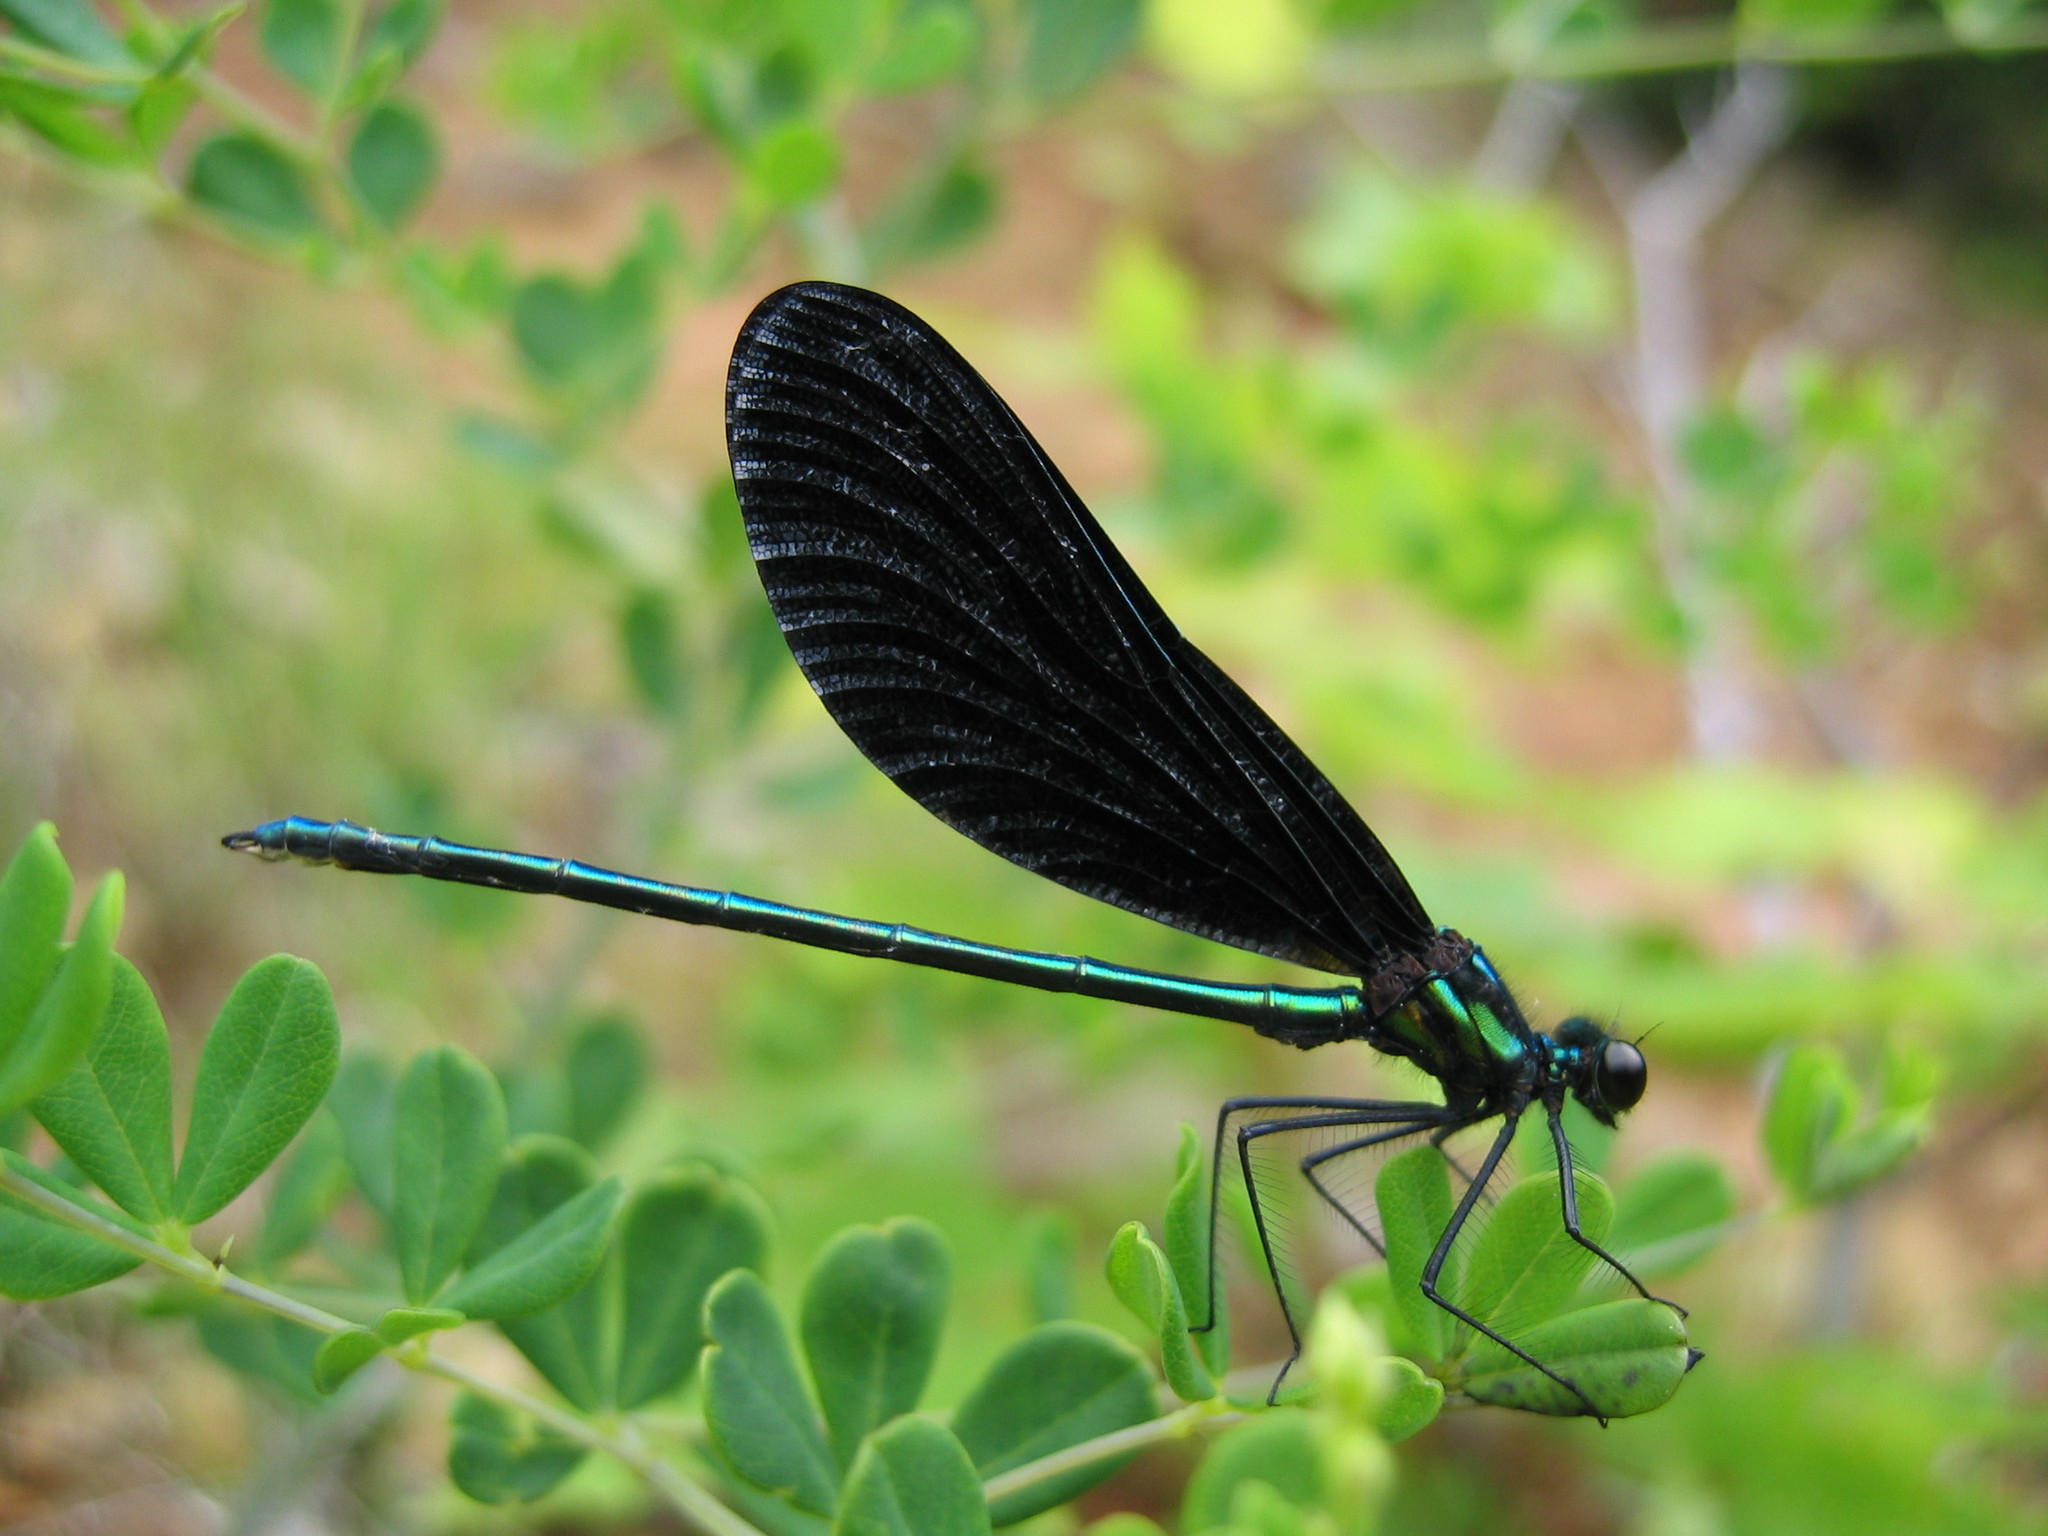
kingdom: Animalia
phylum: Arthropoda
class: Insecta
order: Odonata
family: Calopterygidae
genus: Calopteryx
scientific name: Calopteryx maculata
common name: Ebony jewelwing
